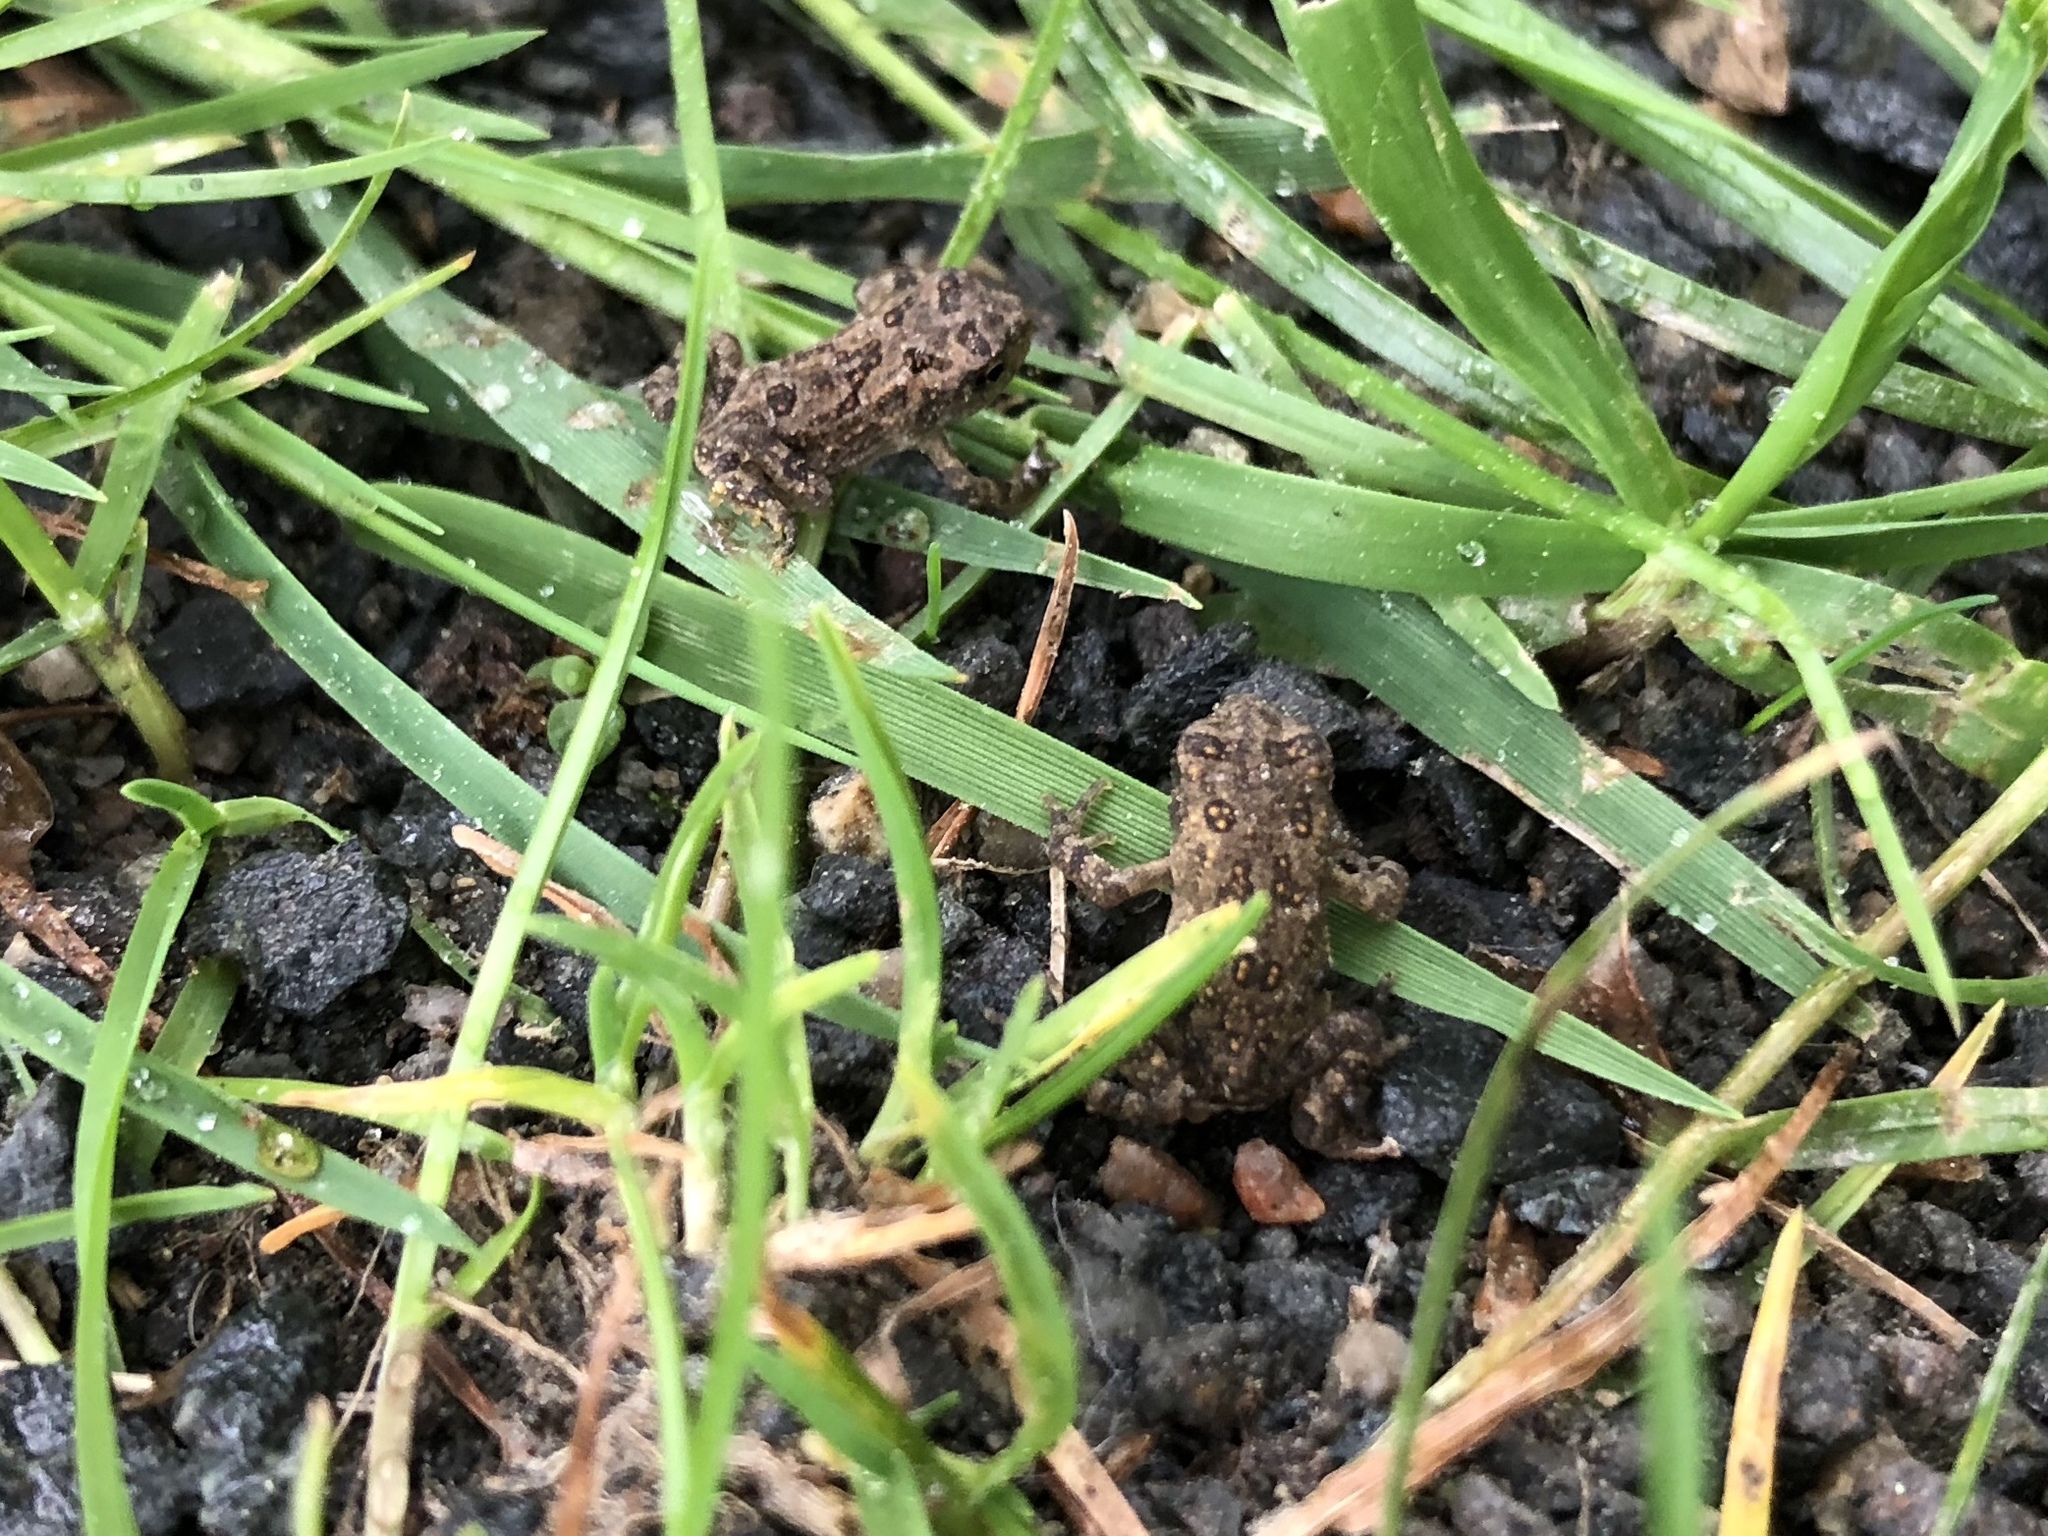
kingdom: Animalia
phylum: Chordata
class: Amphibia
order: Anura
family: Bufonidae
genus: Anaxyrus
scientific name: Anaxyrus
